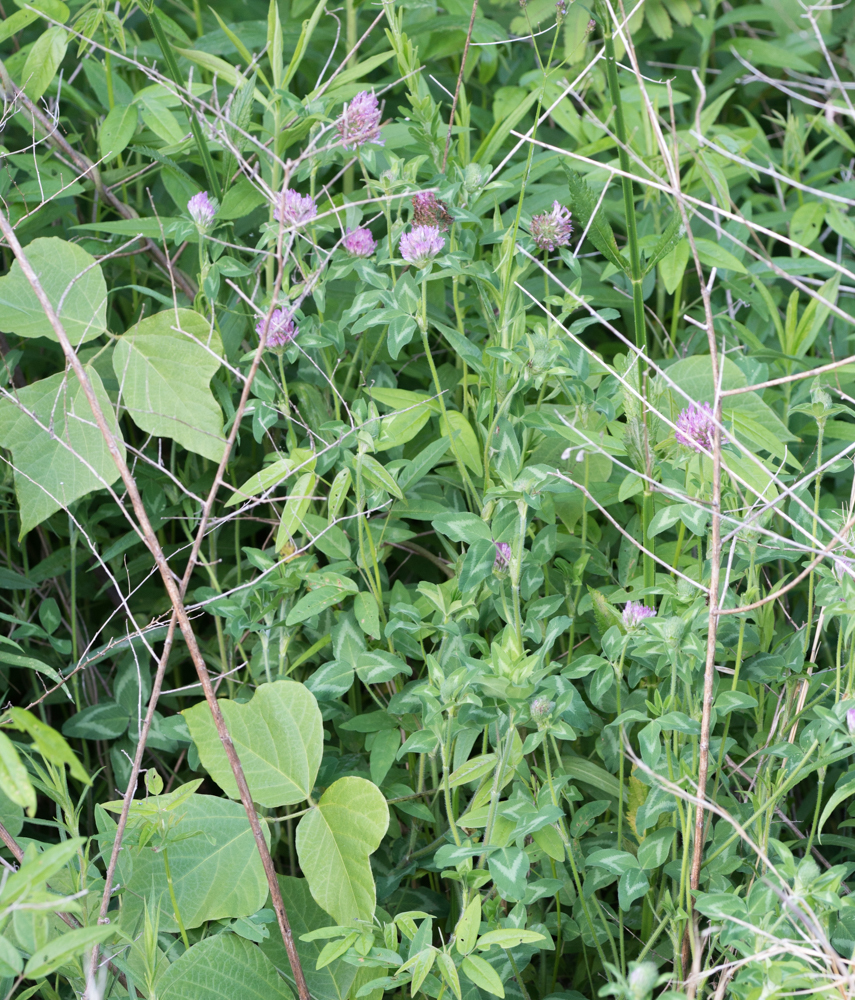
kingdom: Plantae
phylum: Tracheophyta
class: Magnoliopsida
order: Fabales
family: Fabaceae
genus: Trifolium
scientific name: Trifolium pratense
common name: Red clover
